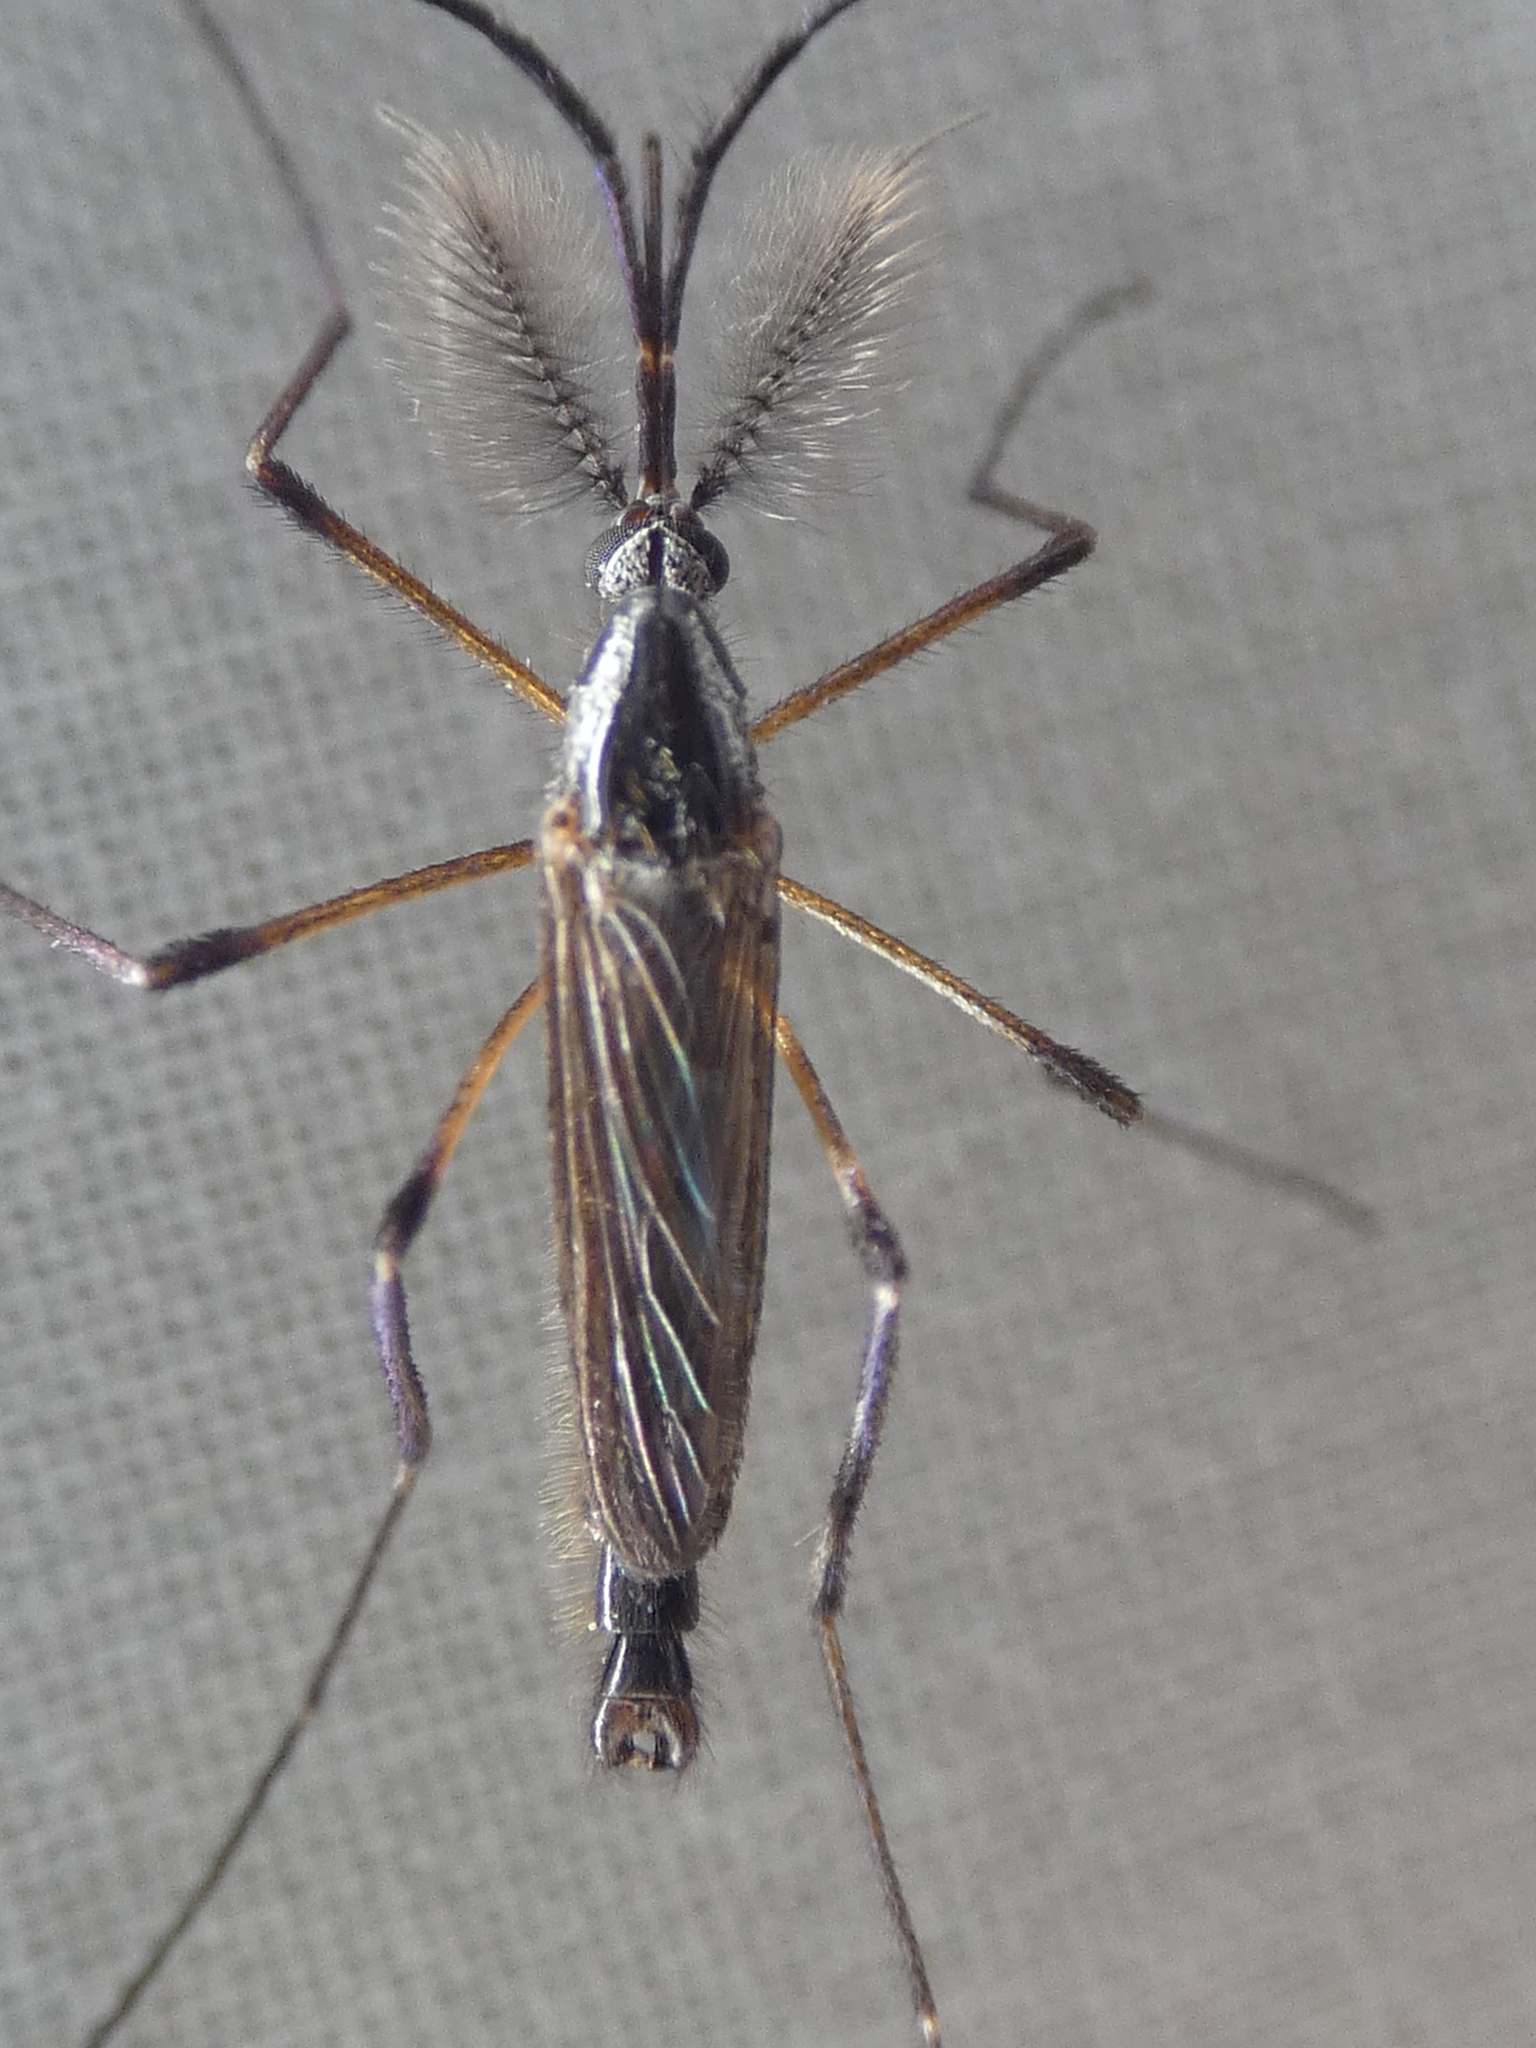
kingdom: Animalia
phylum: Arthropoda
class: Insecta
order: Diptera
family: Culicidae
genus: Psorophora
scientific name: Psorophora howardii
